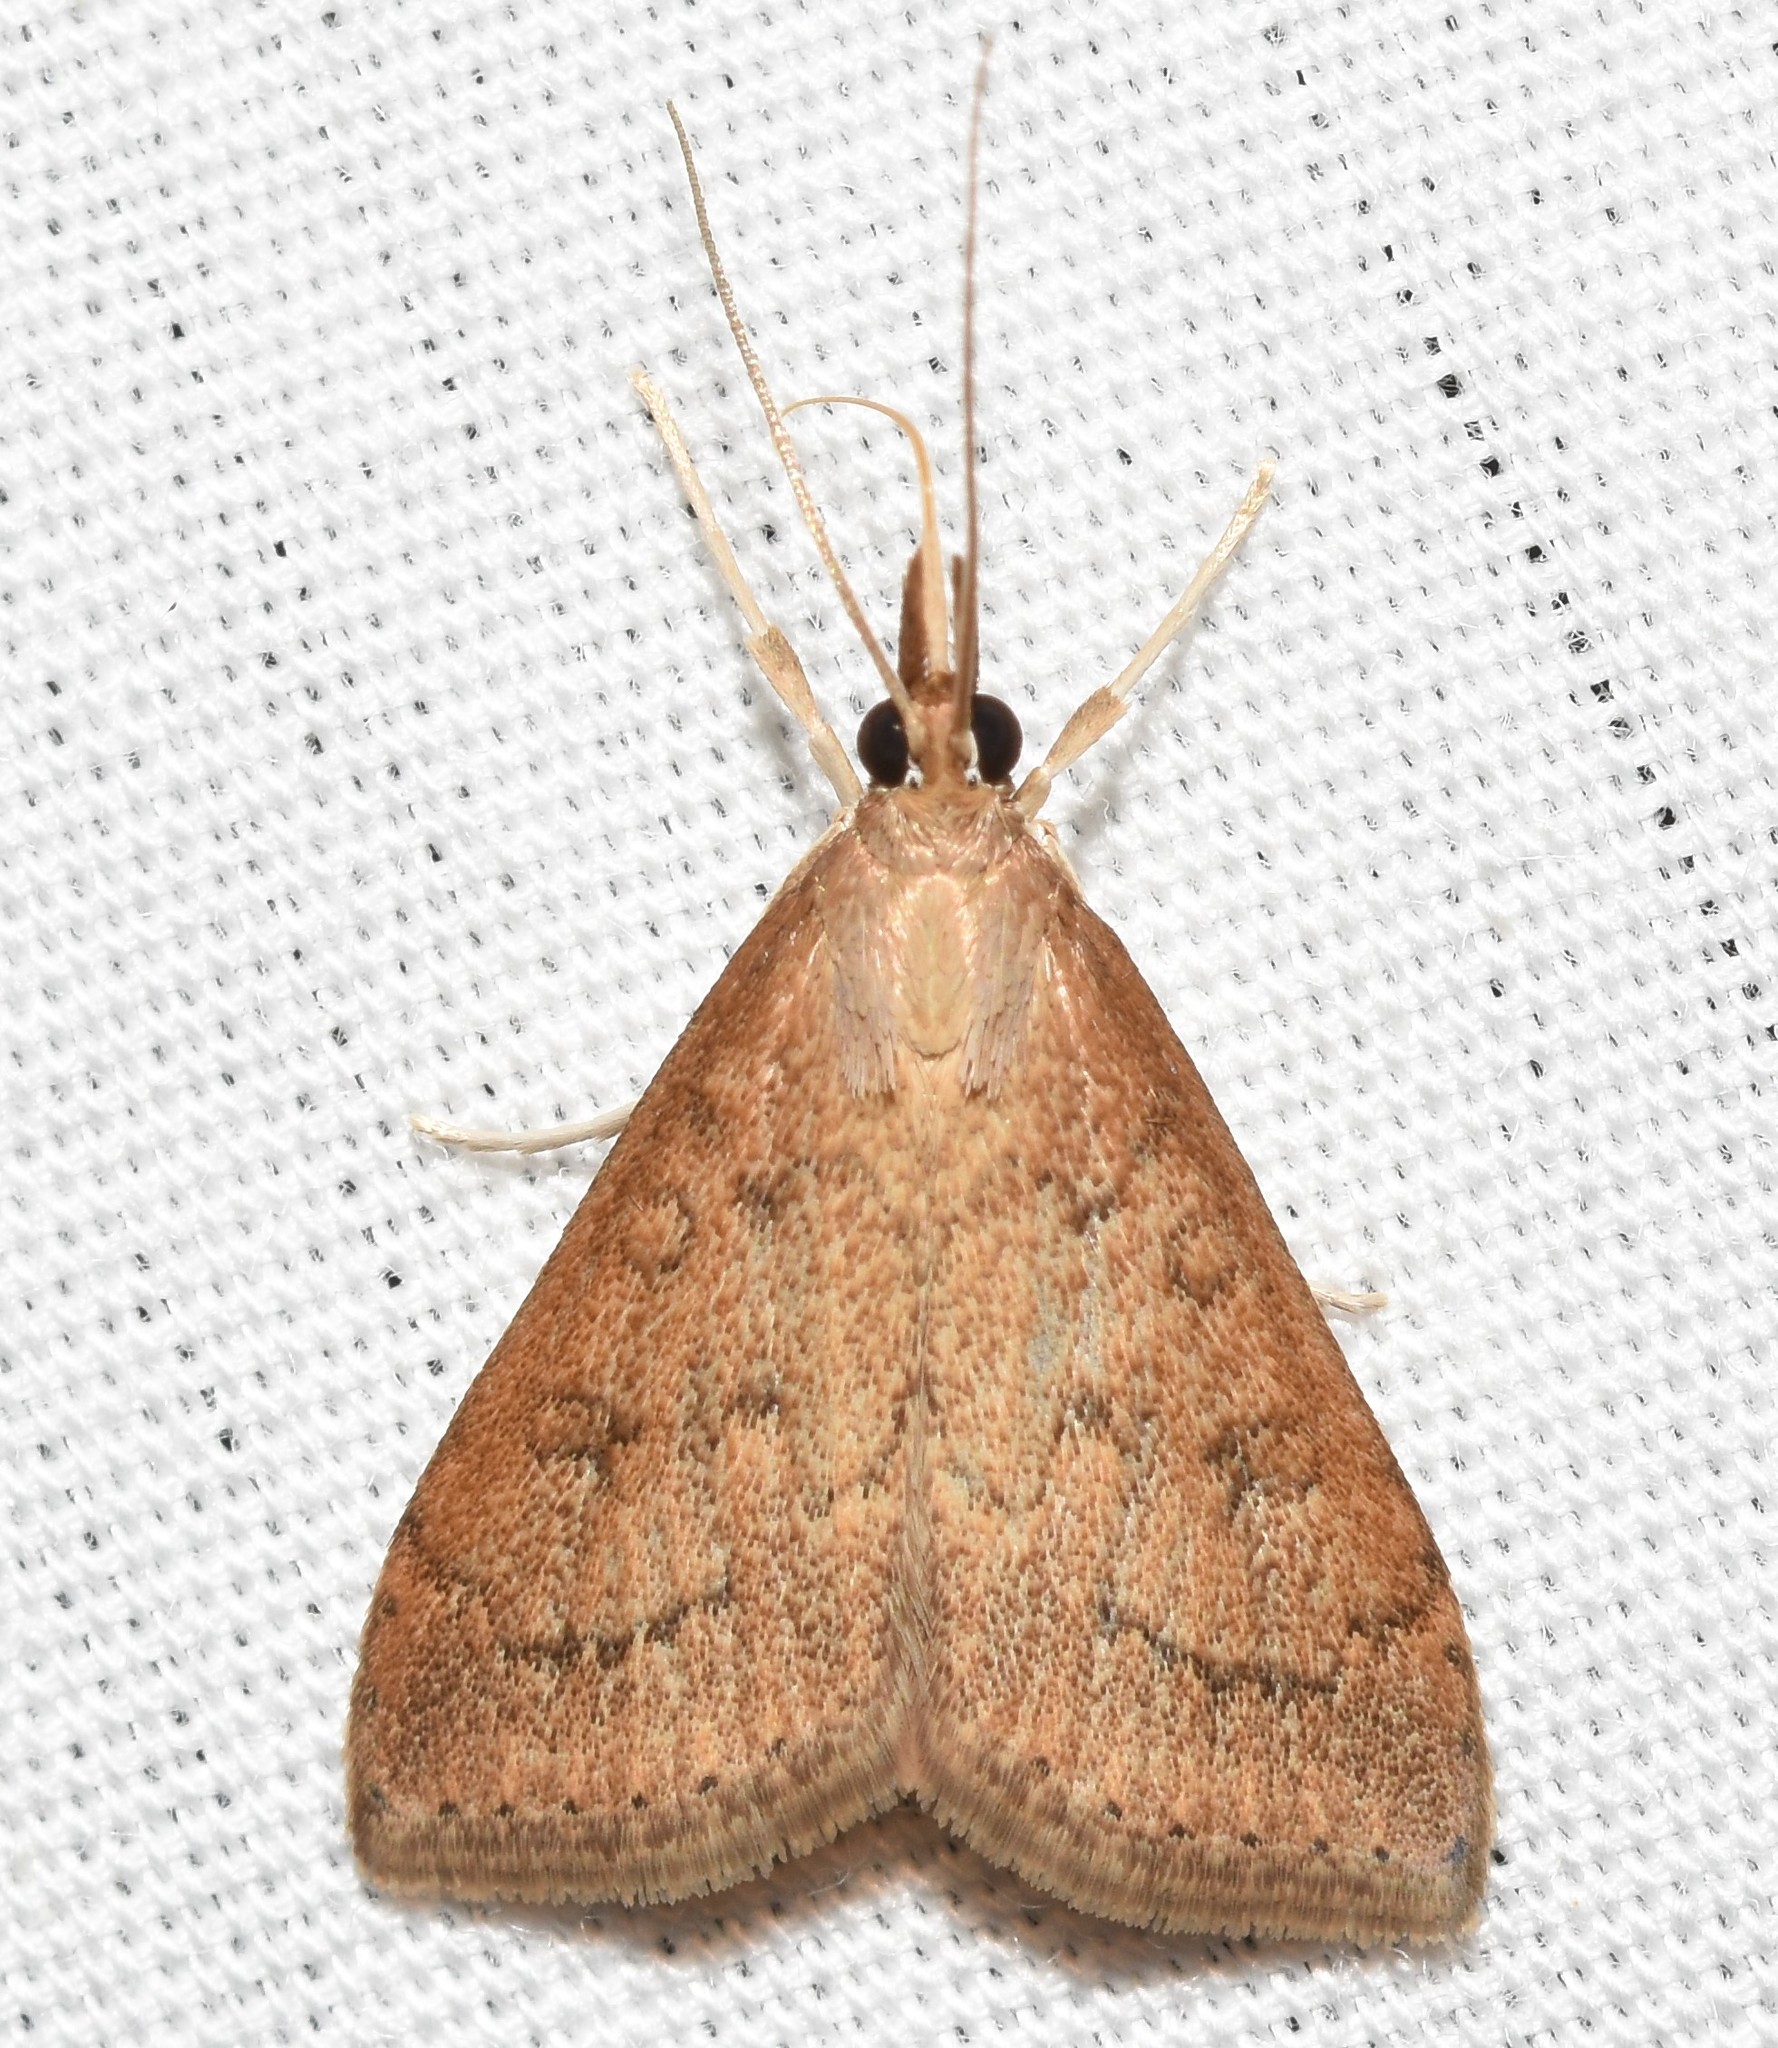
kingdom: Animalia
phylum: Arthropoda
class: Insecta
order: Lepidoptera
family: Crambidae
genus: Udea
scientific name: Udea rubigalis
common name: Celery leaftier moth
